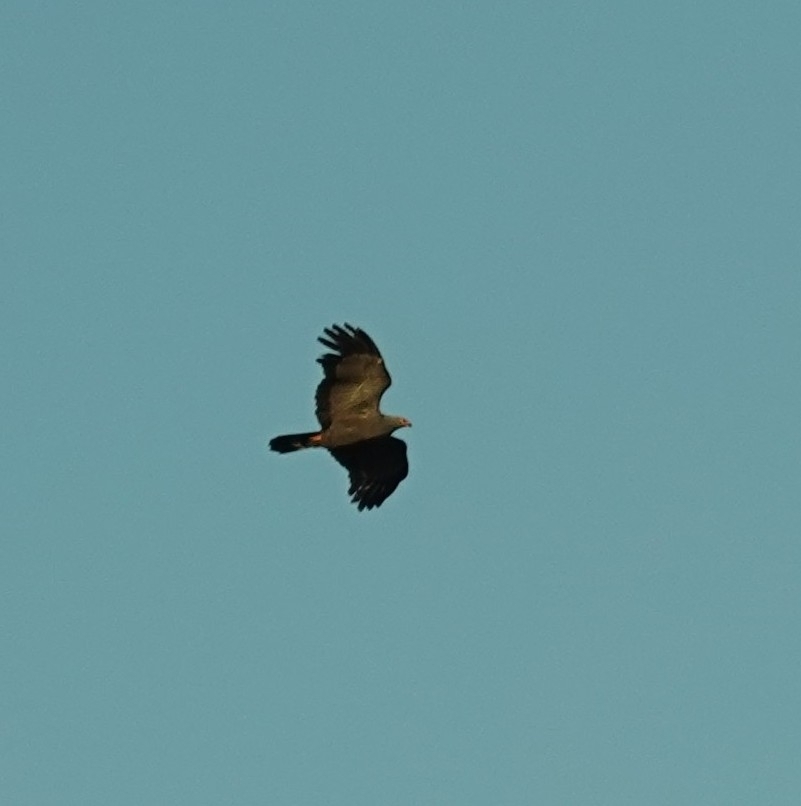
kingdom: Animalia
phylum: Chordata
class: Aves
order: Accipitriformes
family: Accipitridae
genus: Polyboroides
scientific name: Polyboroides typus
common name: African harrier-hawk
